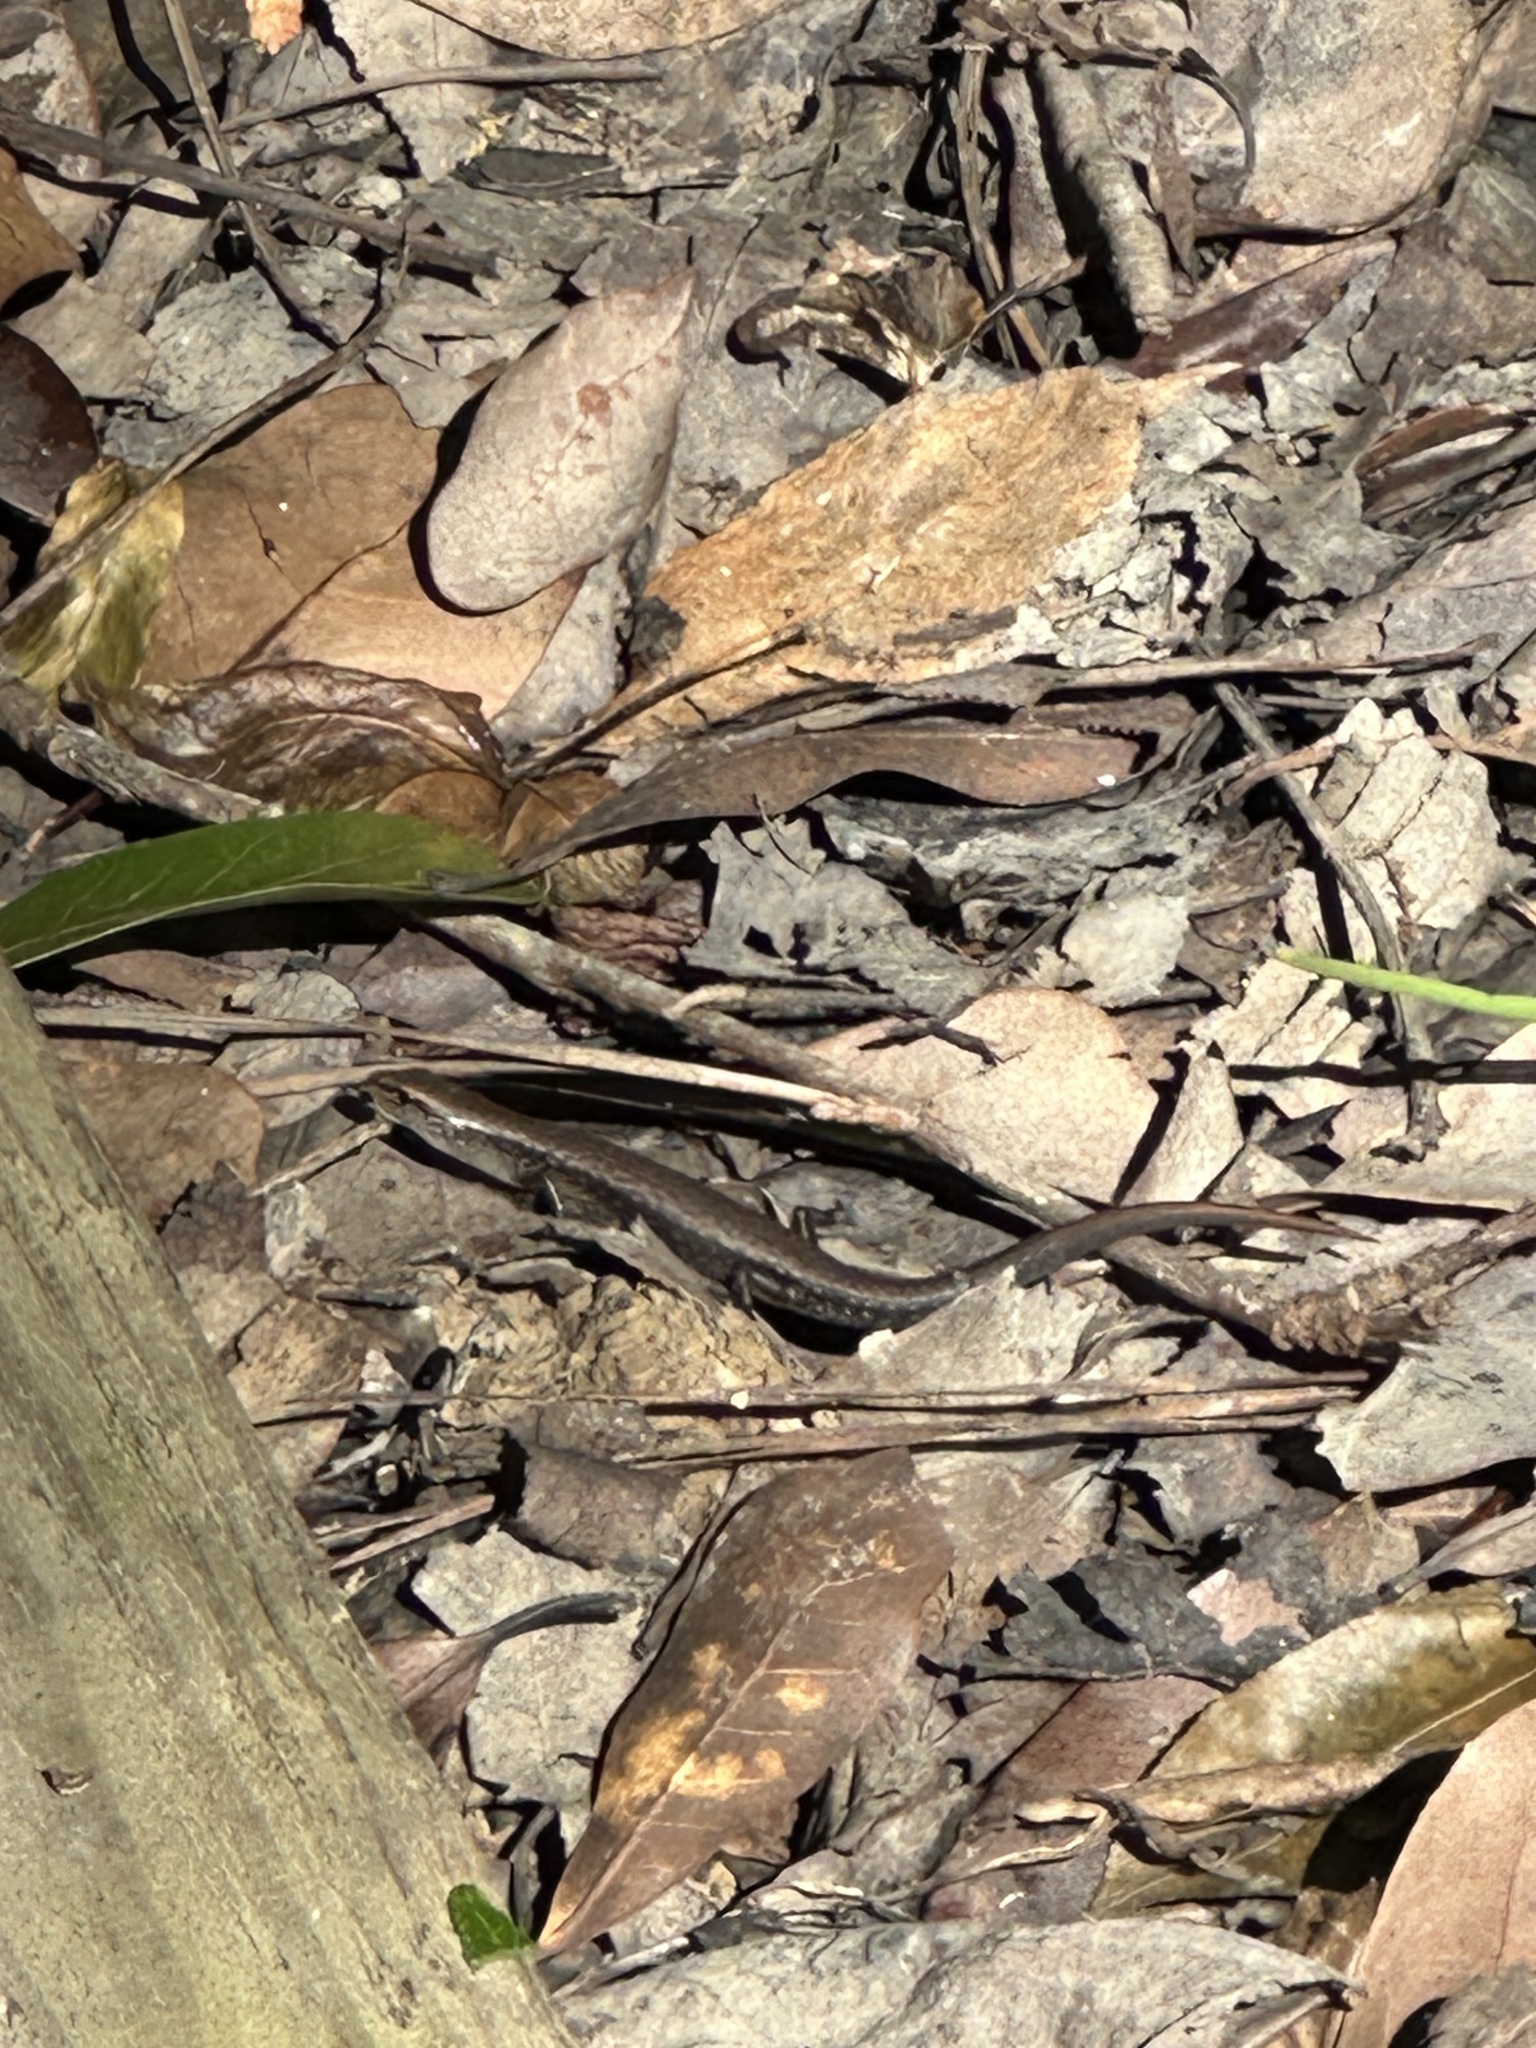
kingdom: Animalia
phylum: Chordata
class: Squamata
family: Scincidae
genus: Scincella
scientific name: Scincella lateralis
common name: Ground skink
